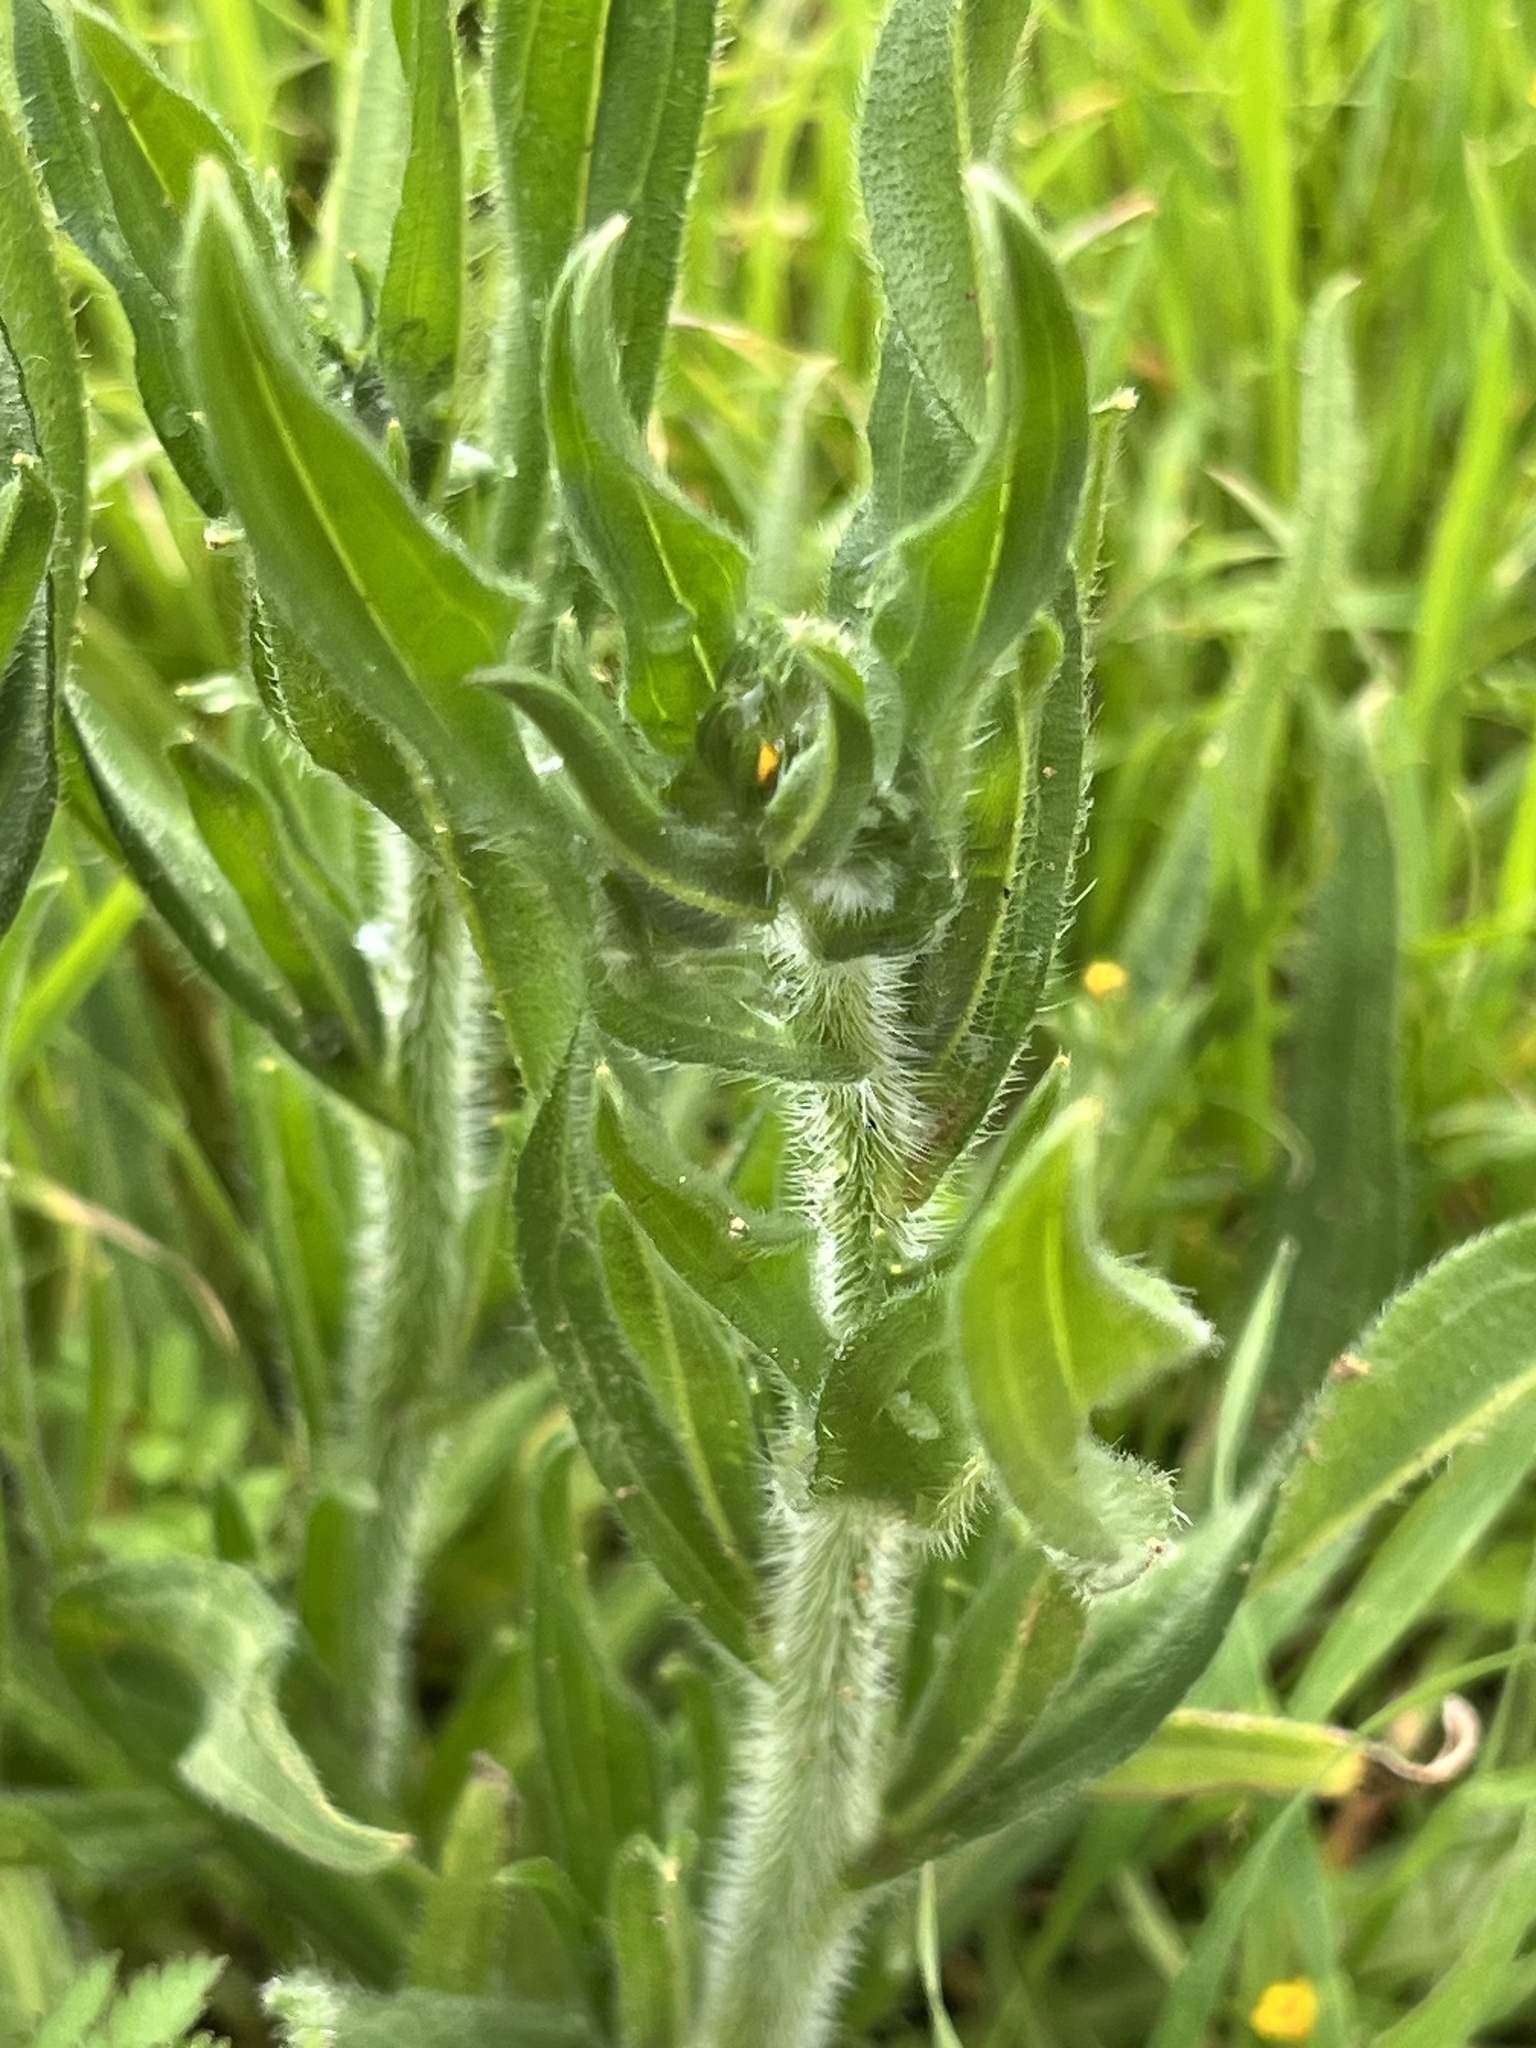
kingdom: Plantae
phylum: Tracheophyta
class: Magnoliopsida
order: Boraginales
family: Boraginaceae
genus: Amsinckia
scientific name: Amsinckia menziesii
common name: Menzies' fiddleneck
